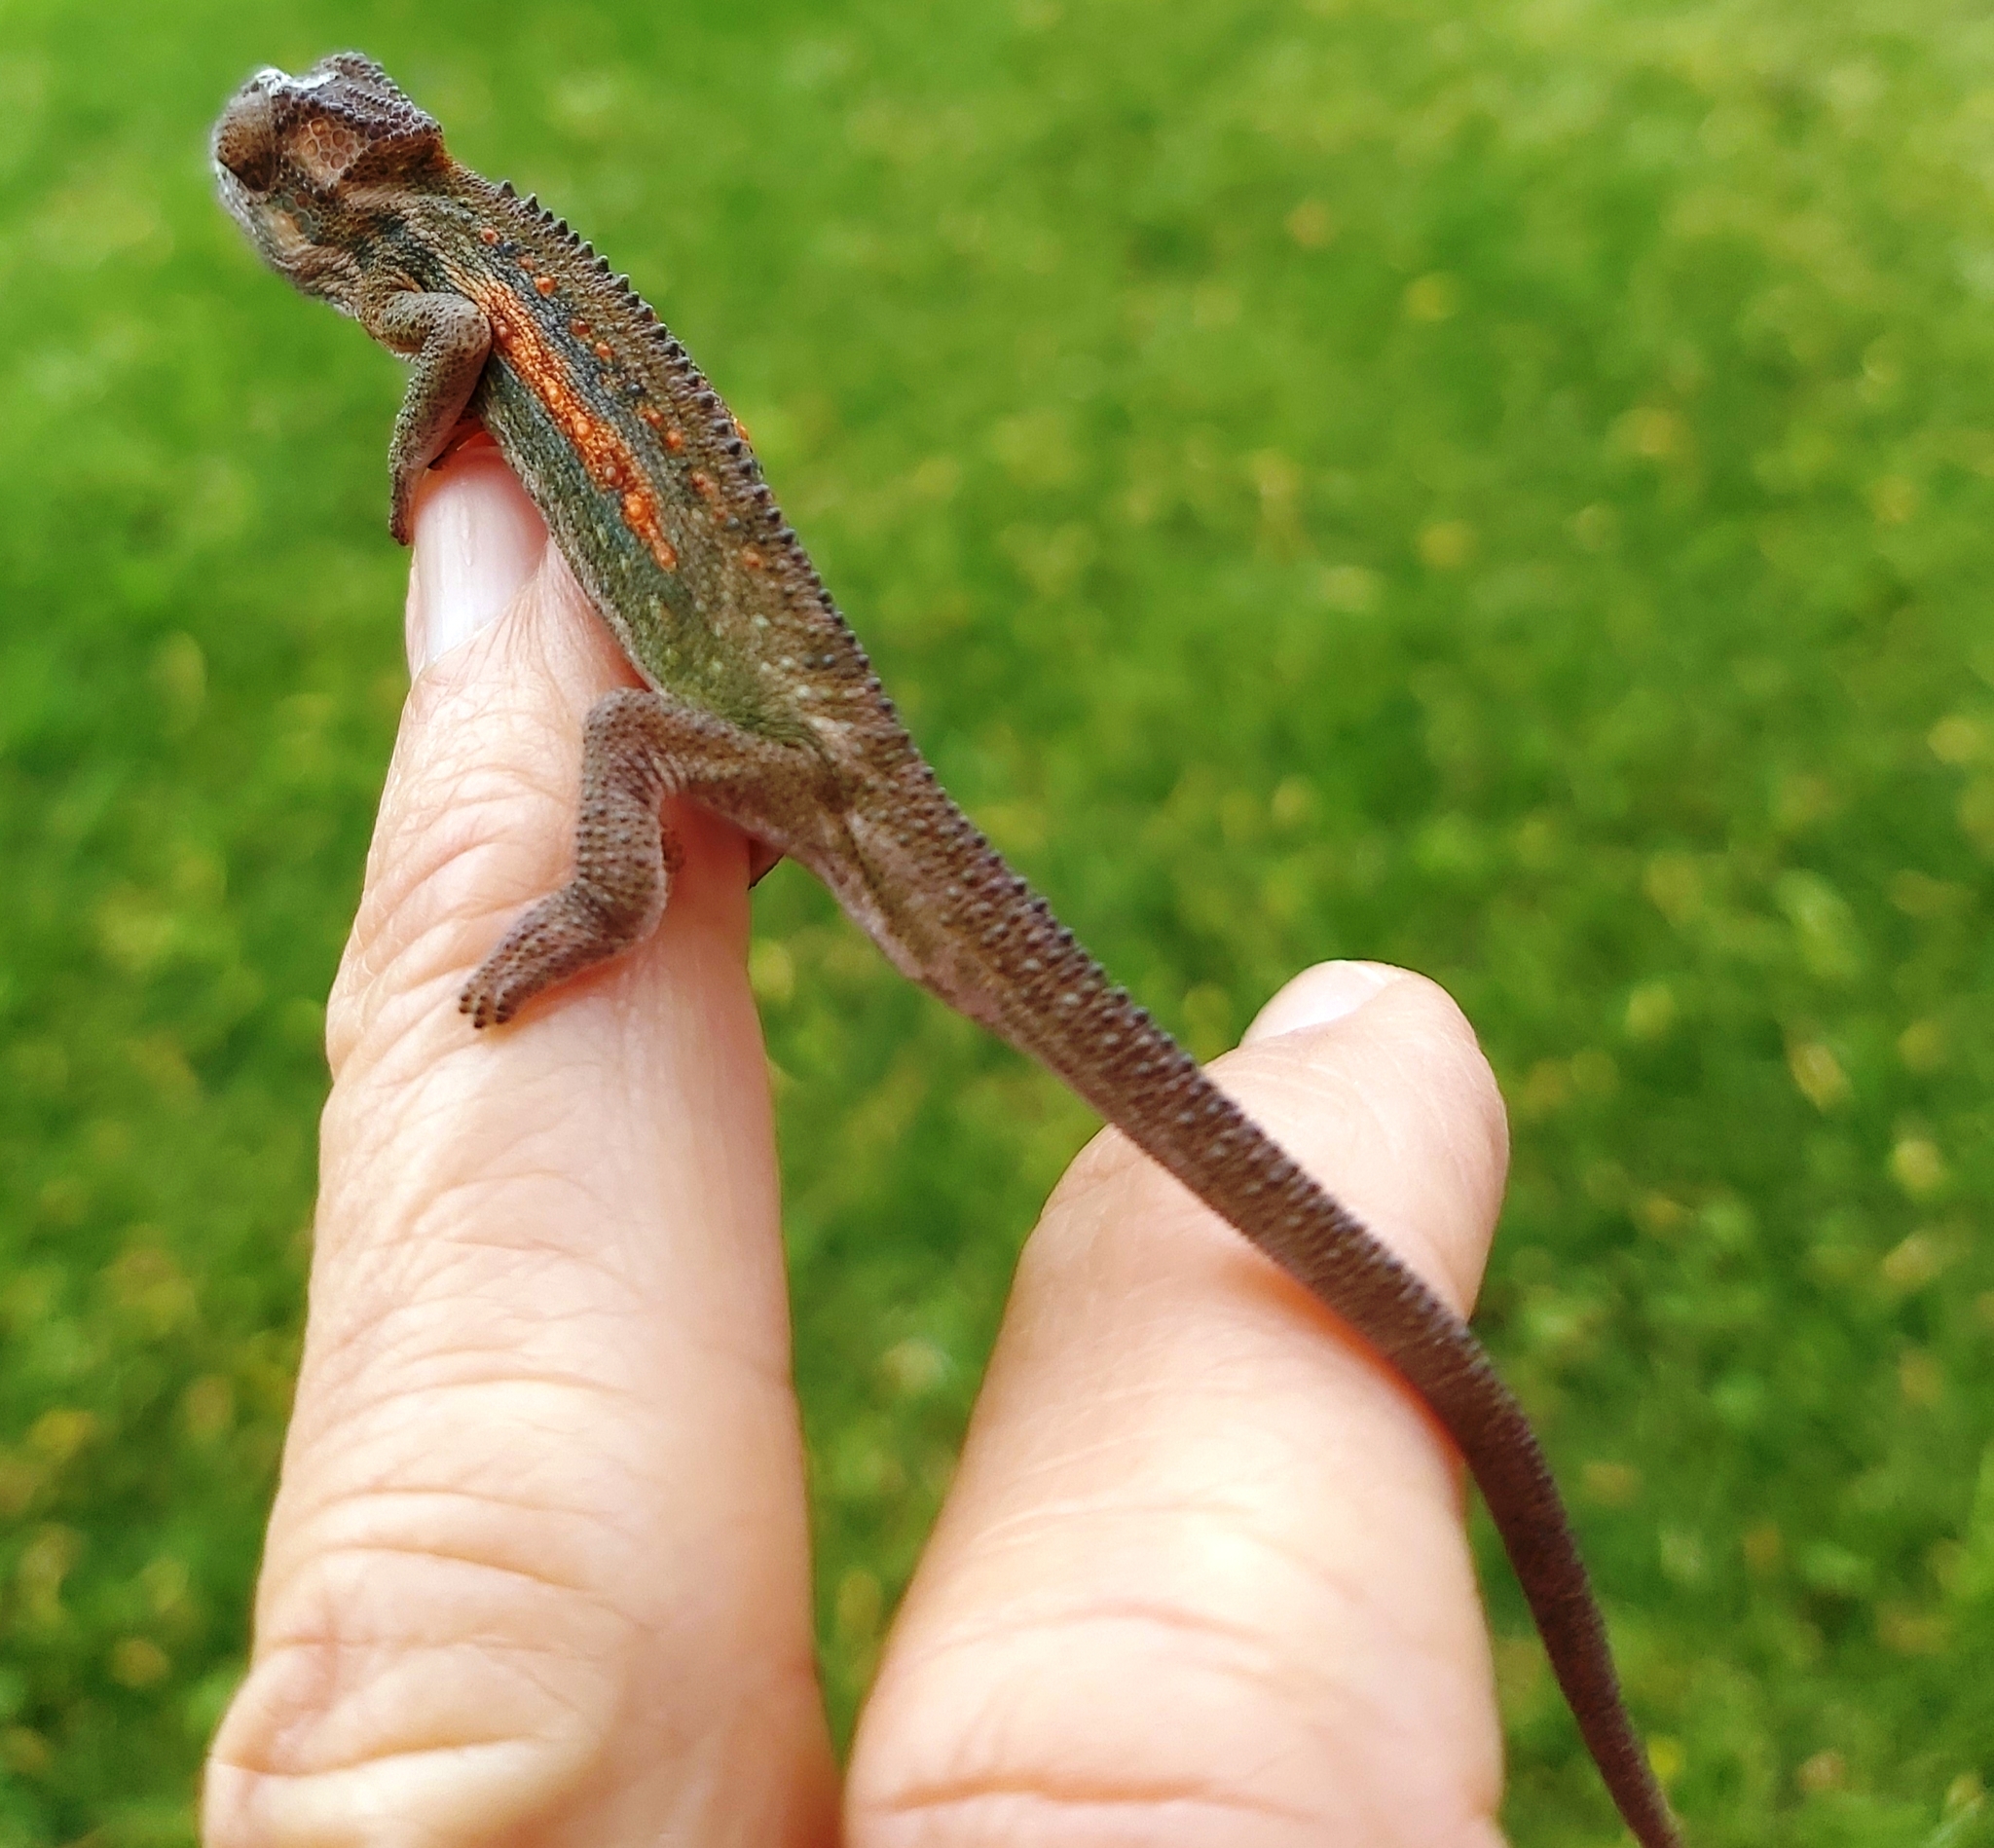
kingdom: Animalia
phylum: Chordata
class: Squamata
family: Chamaeleonidae
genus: Bradypodion
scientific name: Bradypodion pumilum
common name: Cape dwarf chameleon
